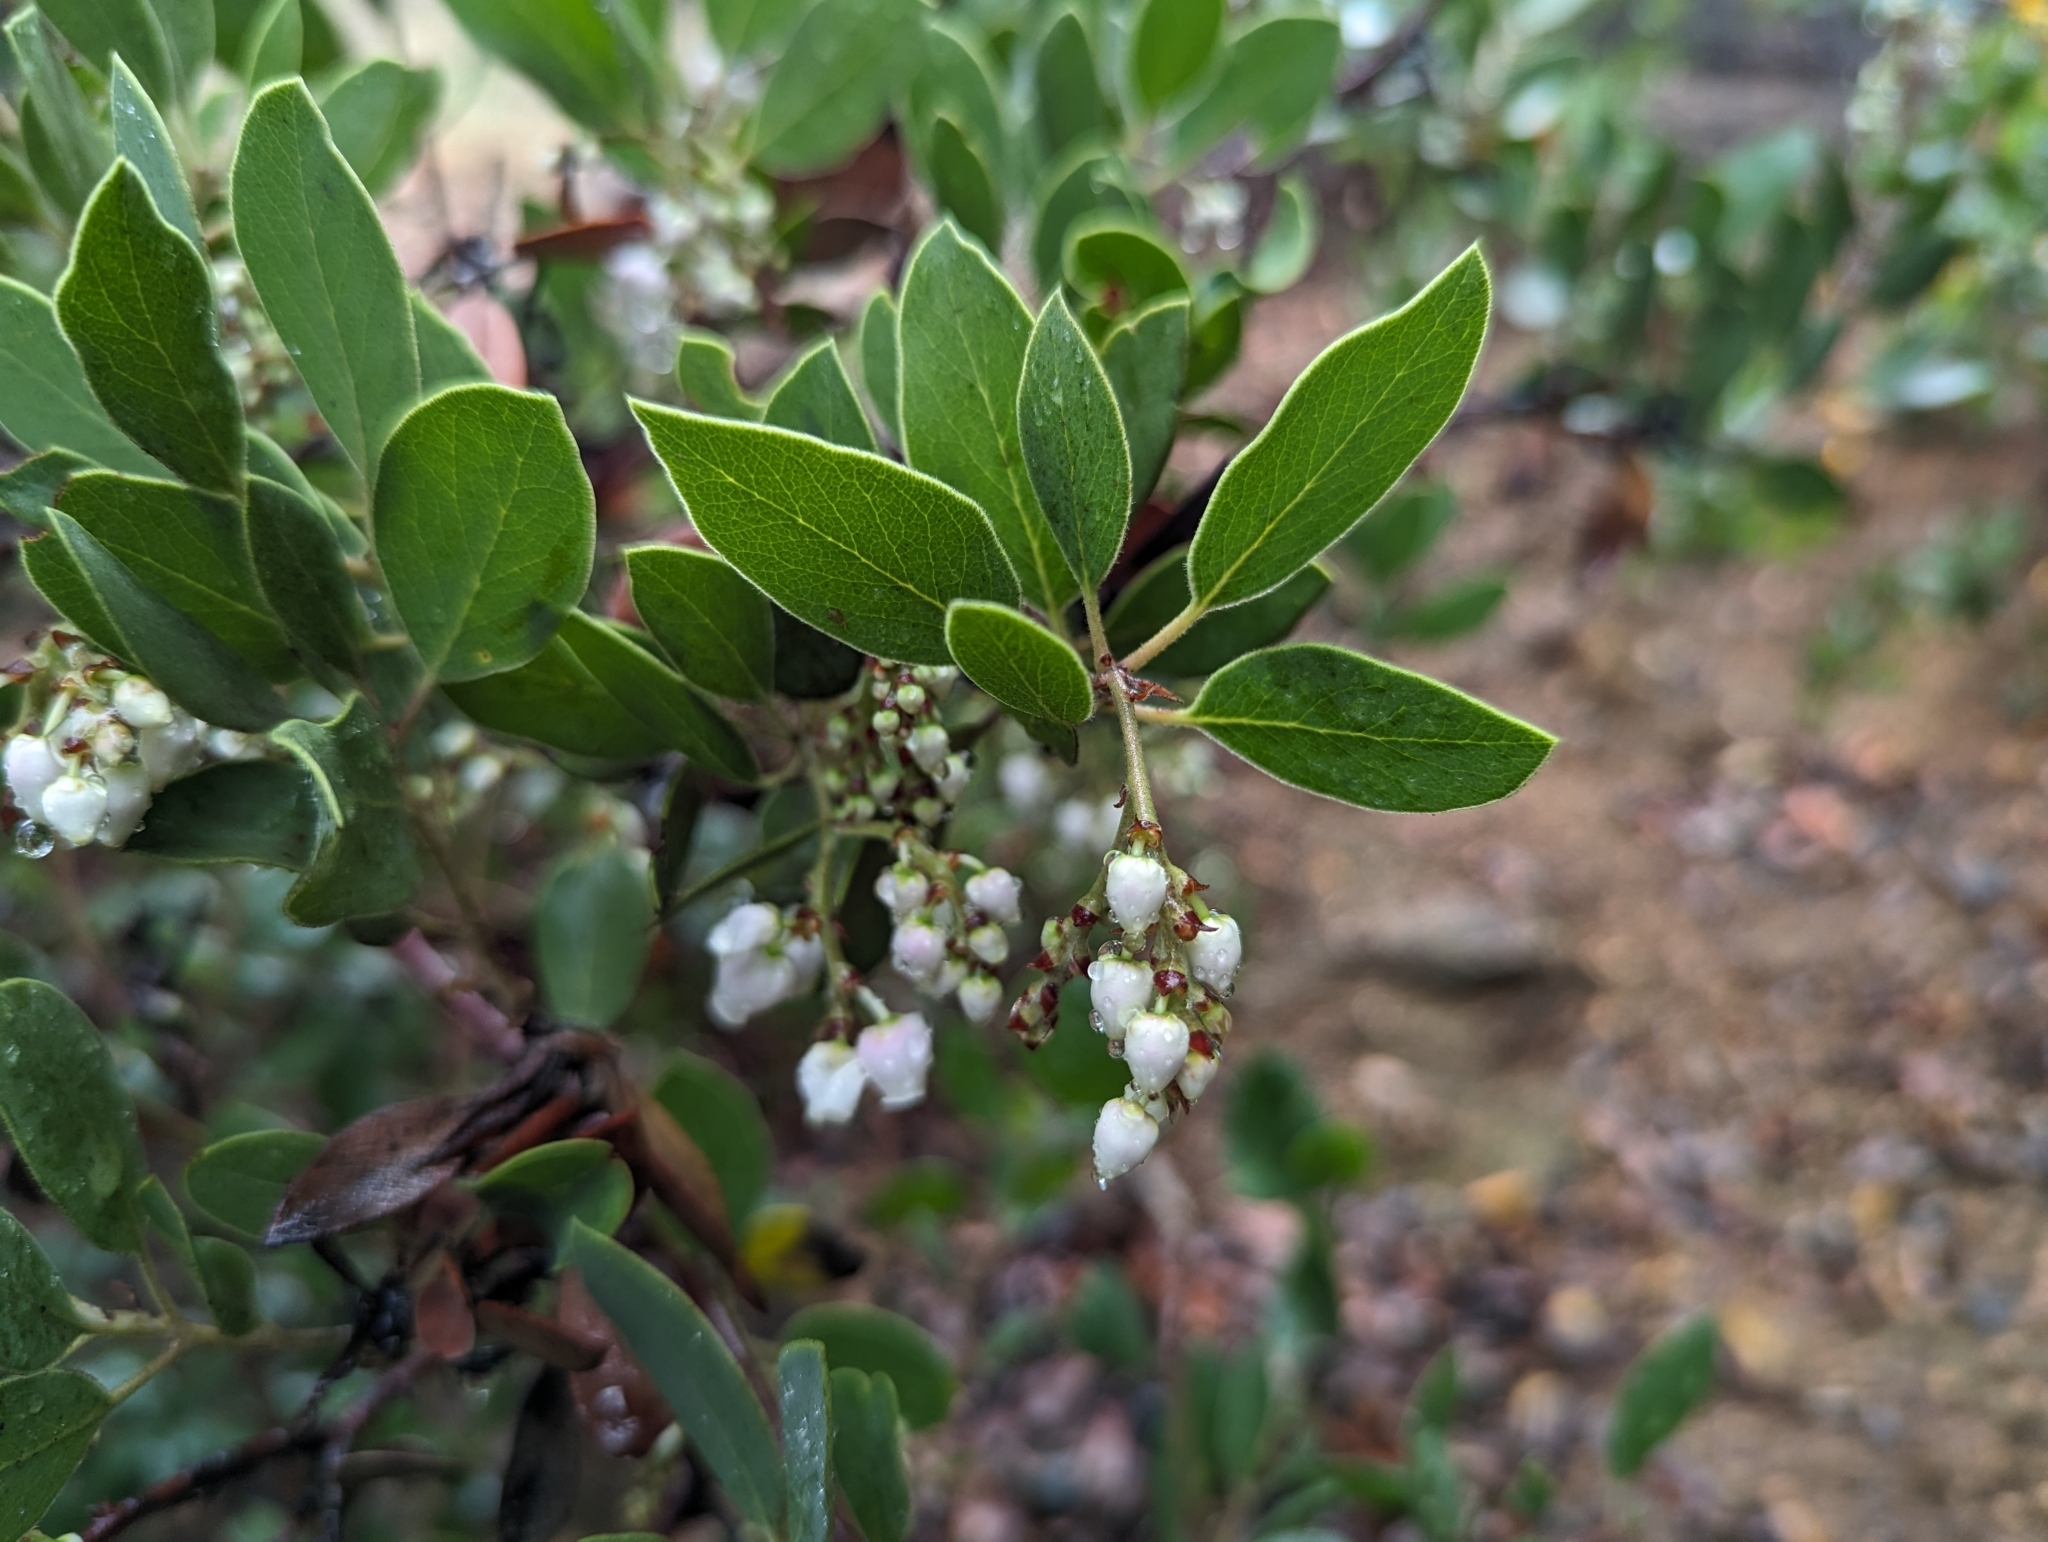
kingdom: Plantae
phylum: Tracheophyta
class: Magnoliopsida
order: Ericales
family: Ericaceae
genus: Arctostaphylos
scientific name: Arctostaphylos manzanita
